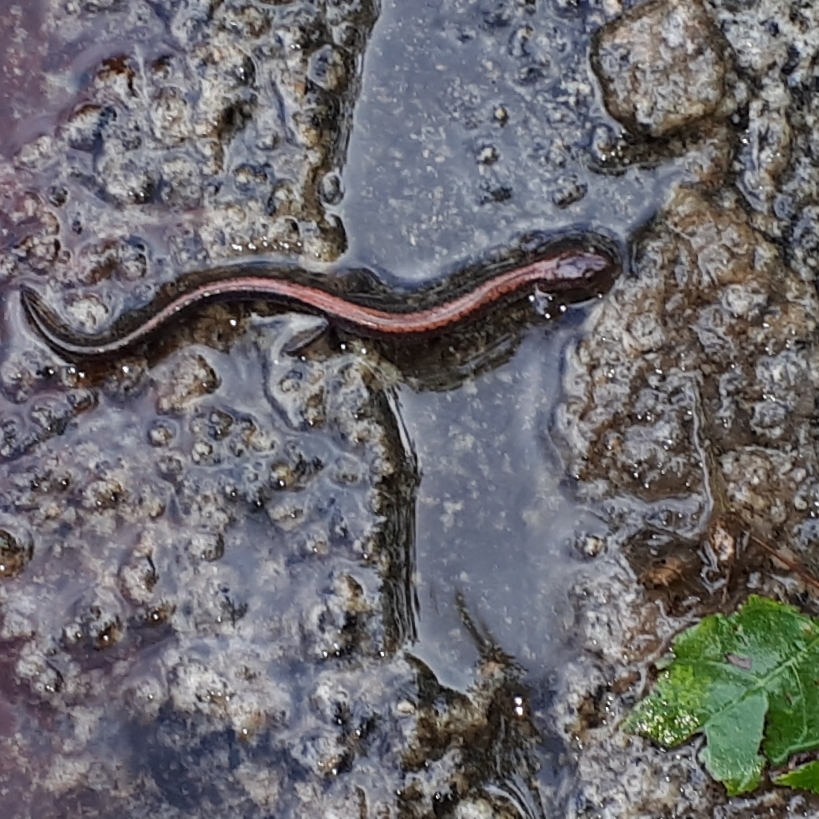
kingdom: Animalia
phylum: Chordata
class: Amphibia
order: Caudata
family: Plethodontidae
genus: Plethodon
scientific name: Plethodon cinereus
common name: Redback salamander
